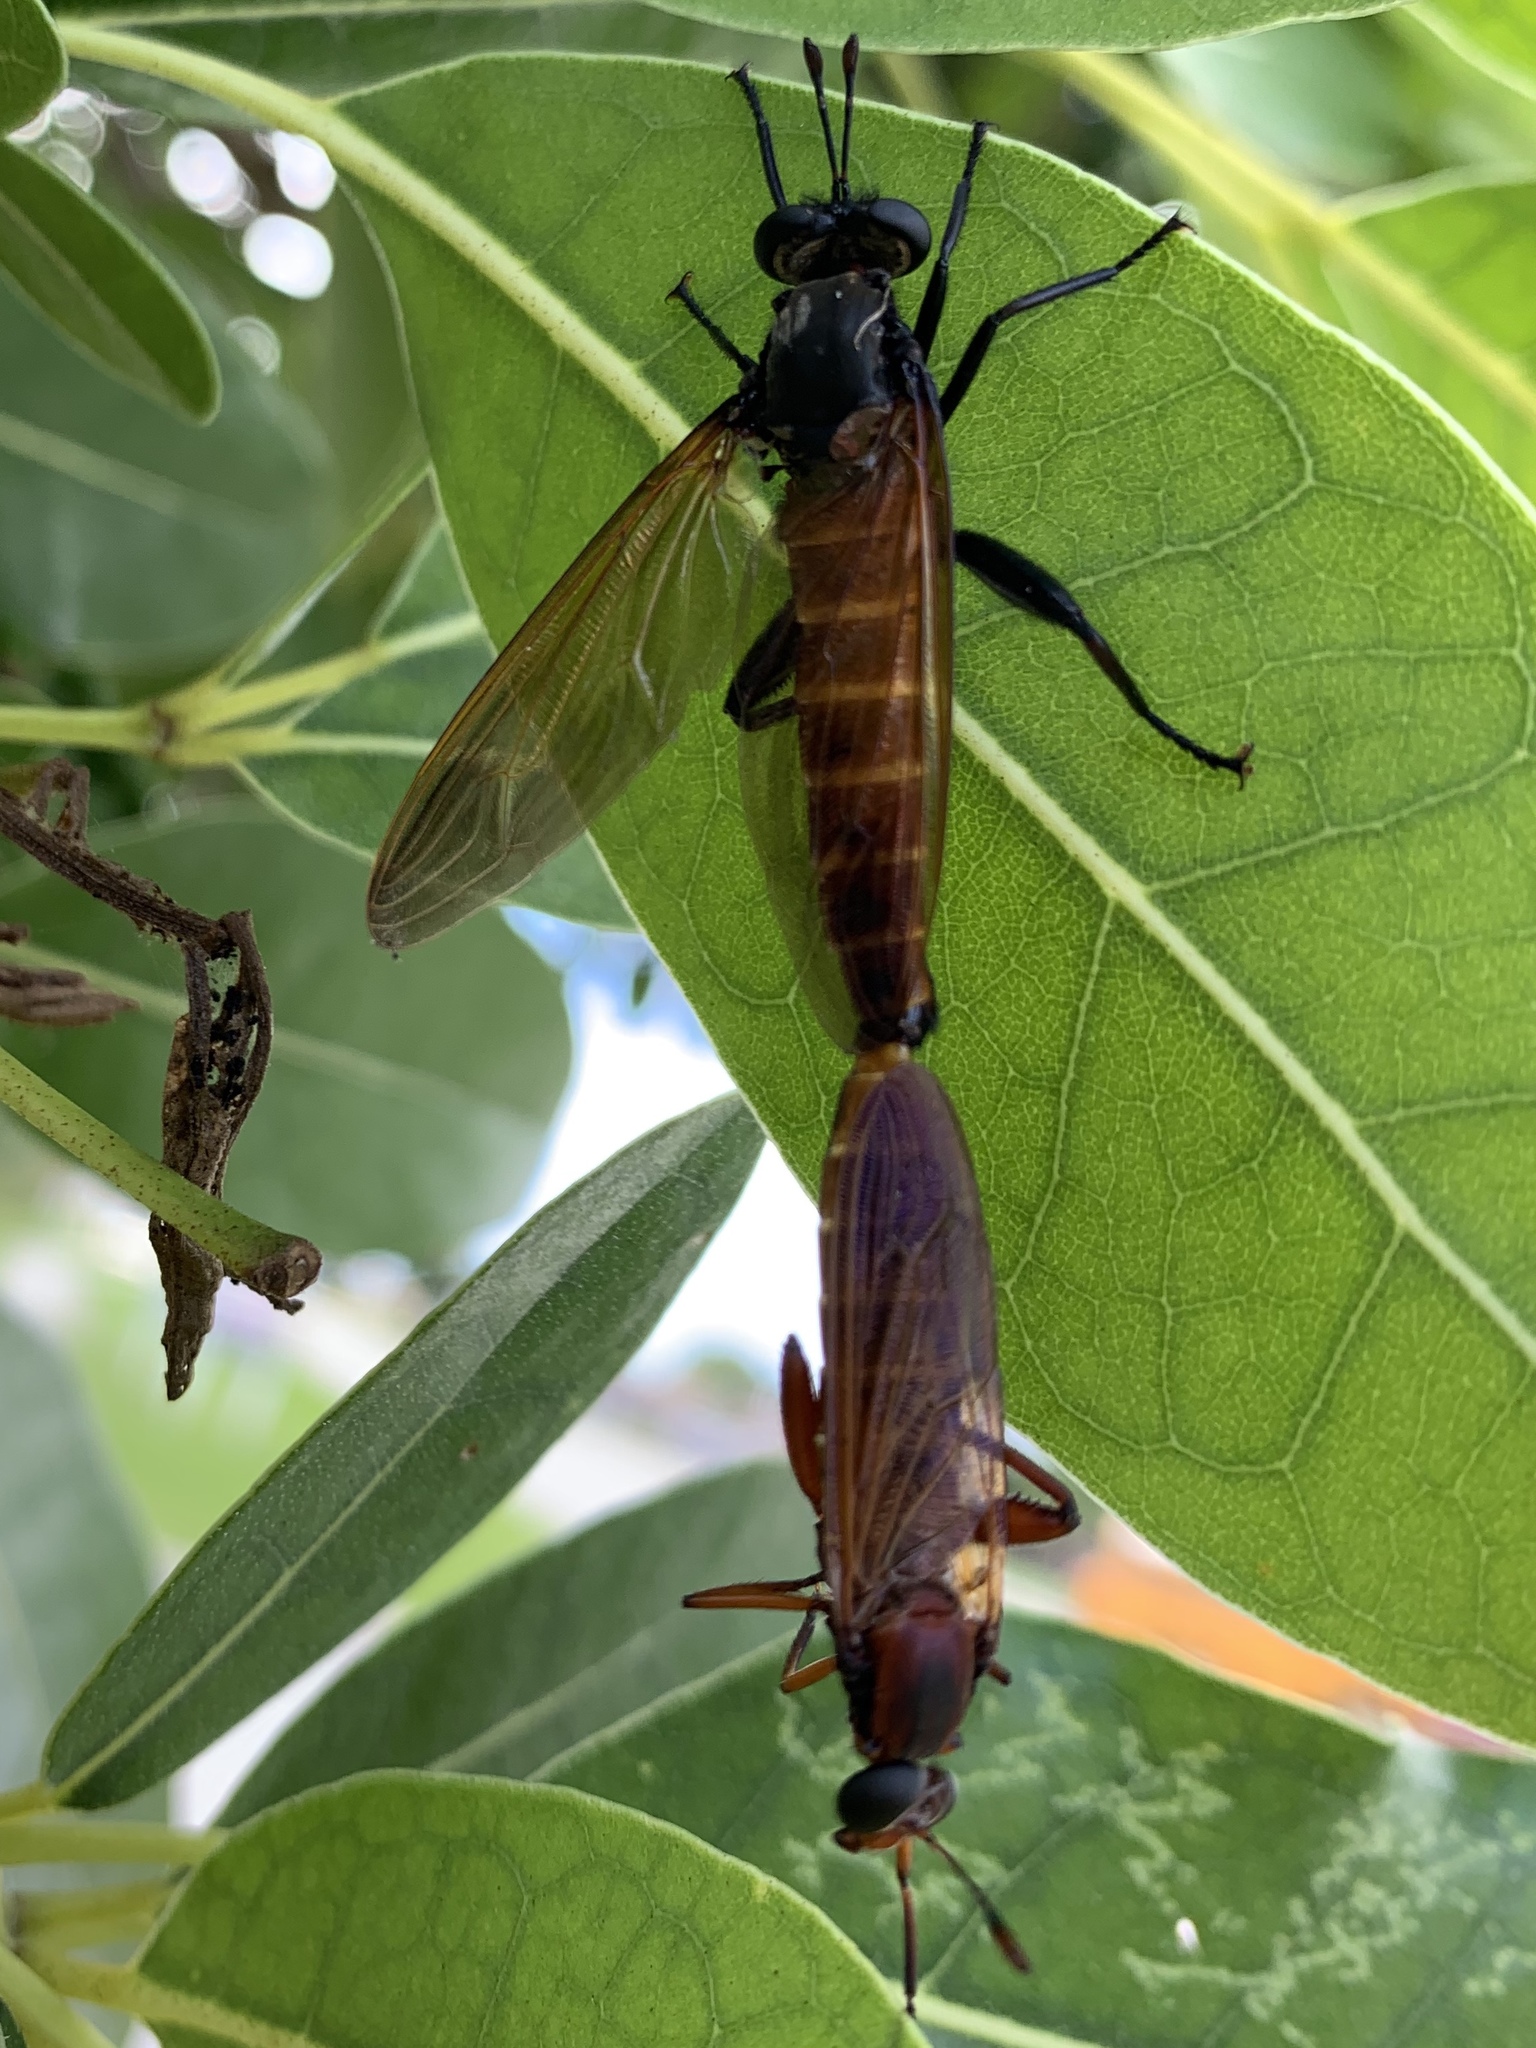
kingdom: Animalia
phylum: Arthropoda
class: Insecta
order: Diptera
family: Mydidae
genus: Mydas
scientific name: Mydas maculiventris
